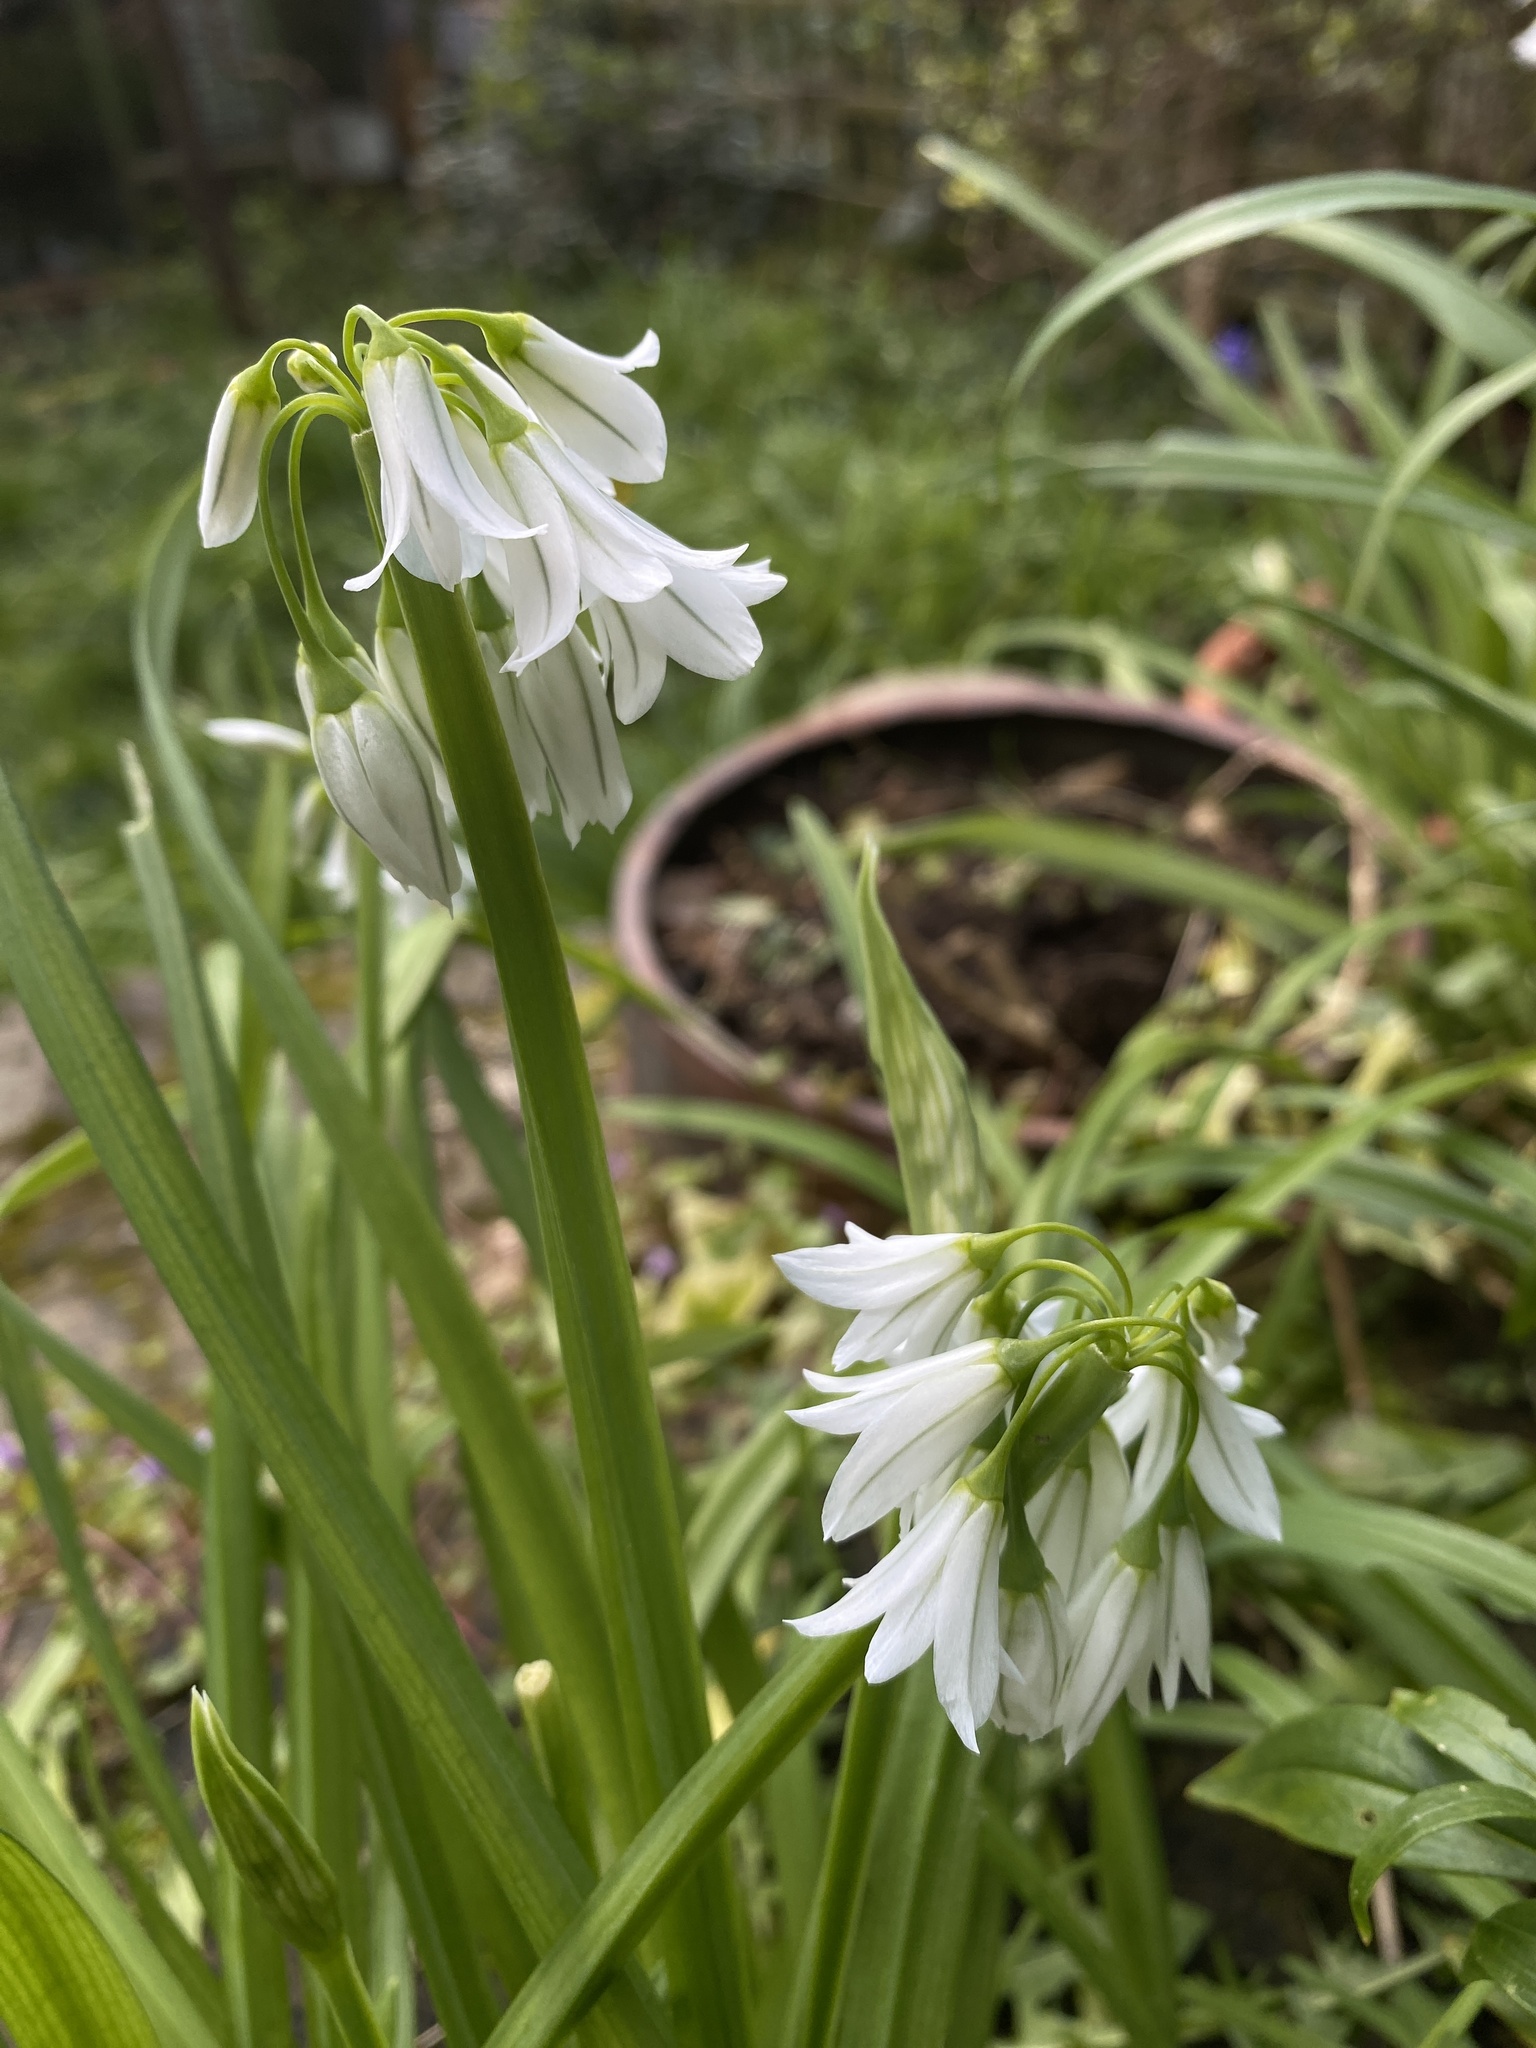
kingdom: Plantae
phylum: Tracheophyta
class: Liliopsida
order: Asparagales
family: Amaryllidaceae
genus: Allium
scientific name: Allium triquetrum
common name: Three-cornered garlic
